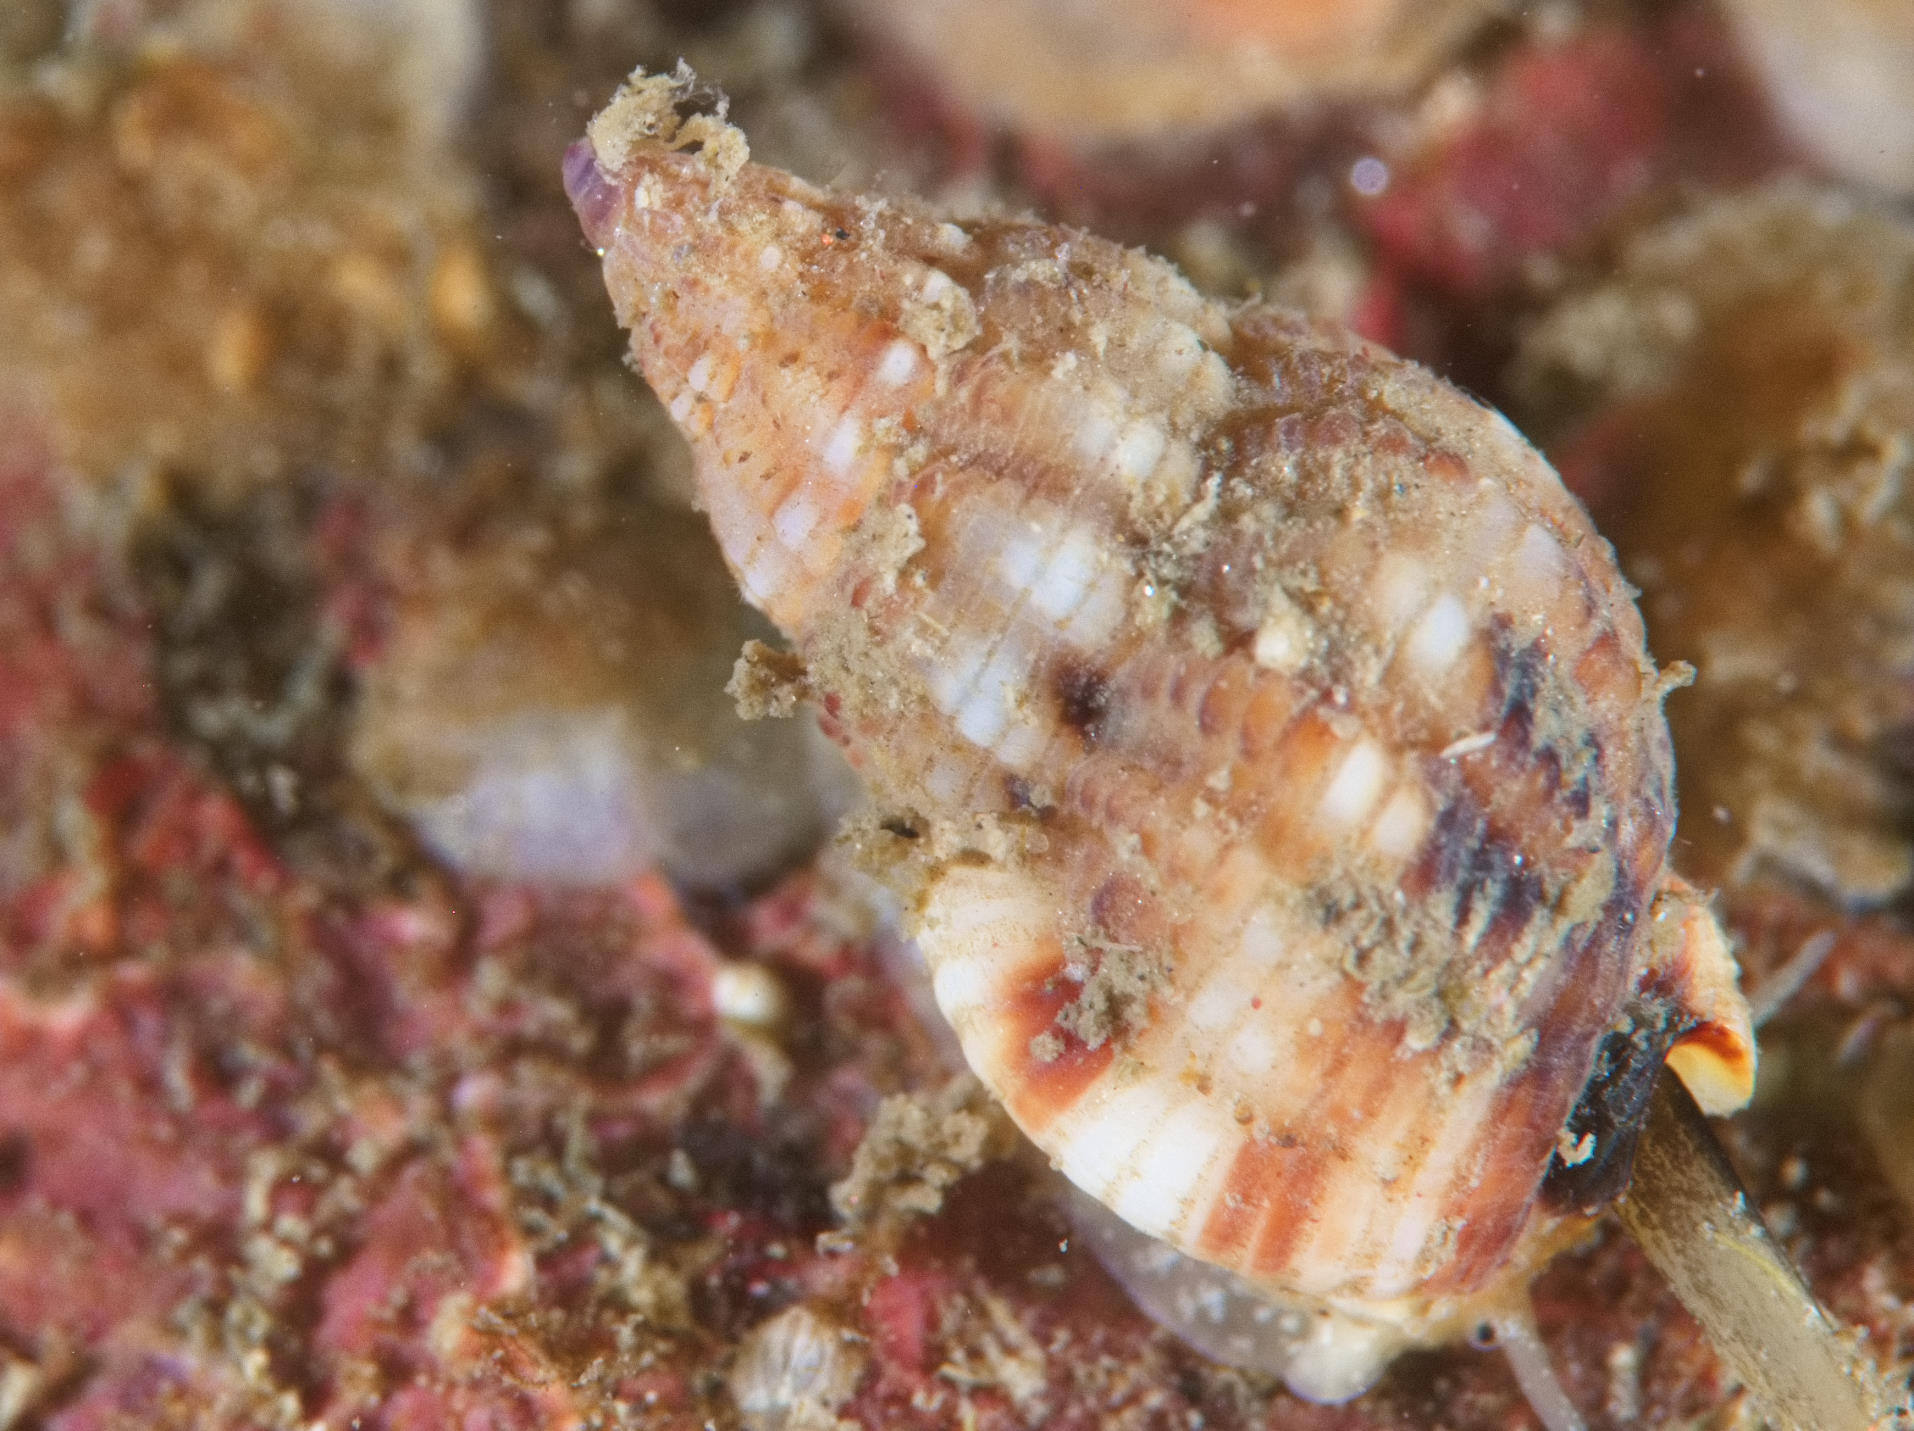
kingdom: Animalia
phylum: Mollusca
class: Gastropoda
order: Neogastropoda
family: Nassariidae
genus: Tritia
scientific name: Tritia incrassata
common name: Thick-lipped dog whelk
